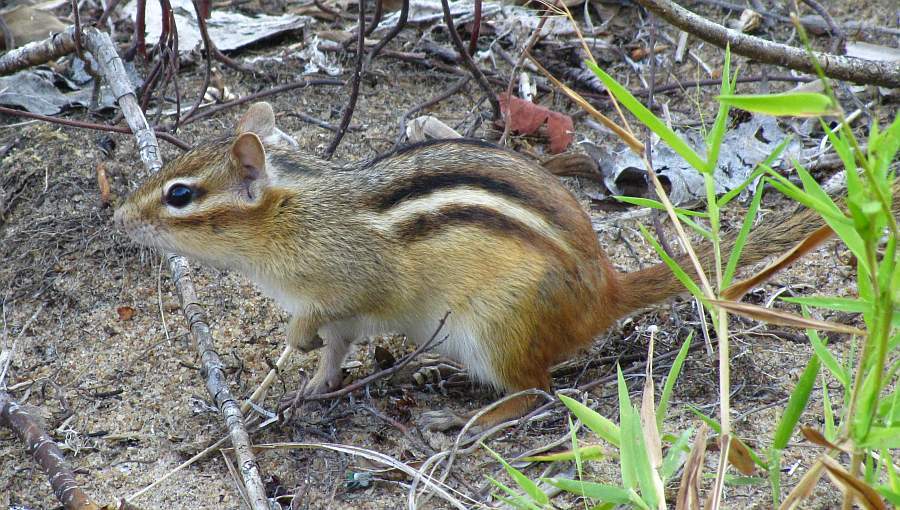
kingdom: Animalia
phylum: Chordata
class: Mammalia
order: Rodentia
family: Sciuridae
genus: Tamias
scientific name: Tamias striatus
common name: Eastern chipmunk
